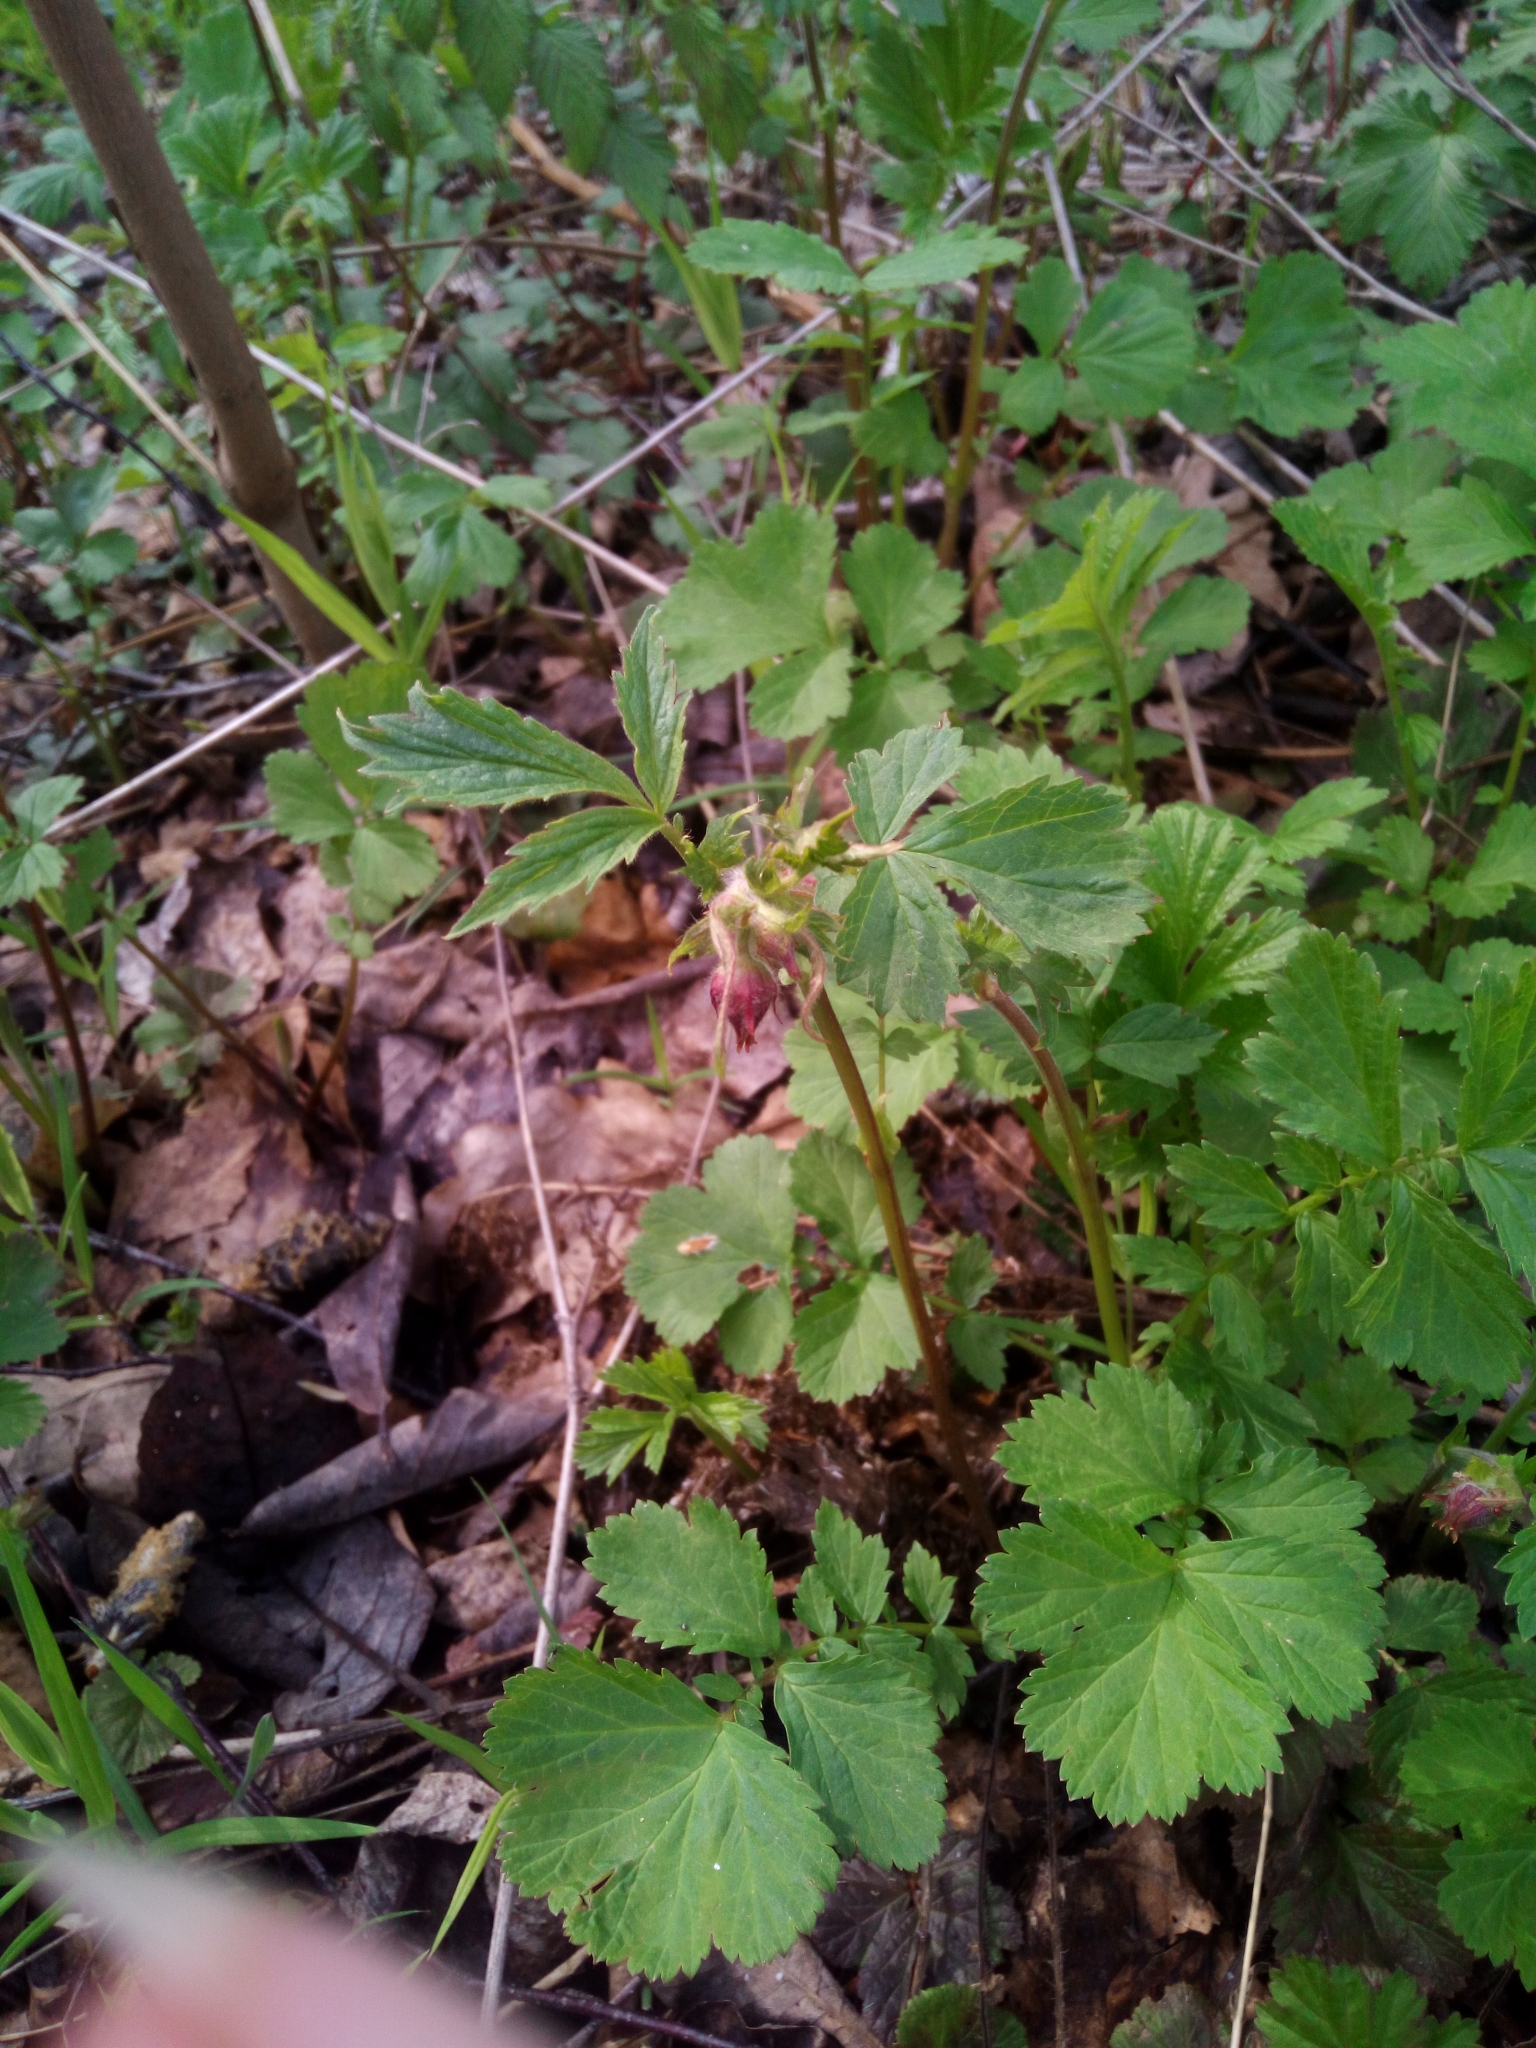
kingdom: Plantae
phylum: Tracheophyta
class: Magnoliopsida
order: Rosales
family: Rosaceae
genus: Geum
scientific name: Geum rivale
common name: Water avens
